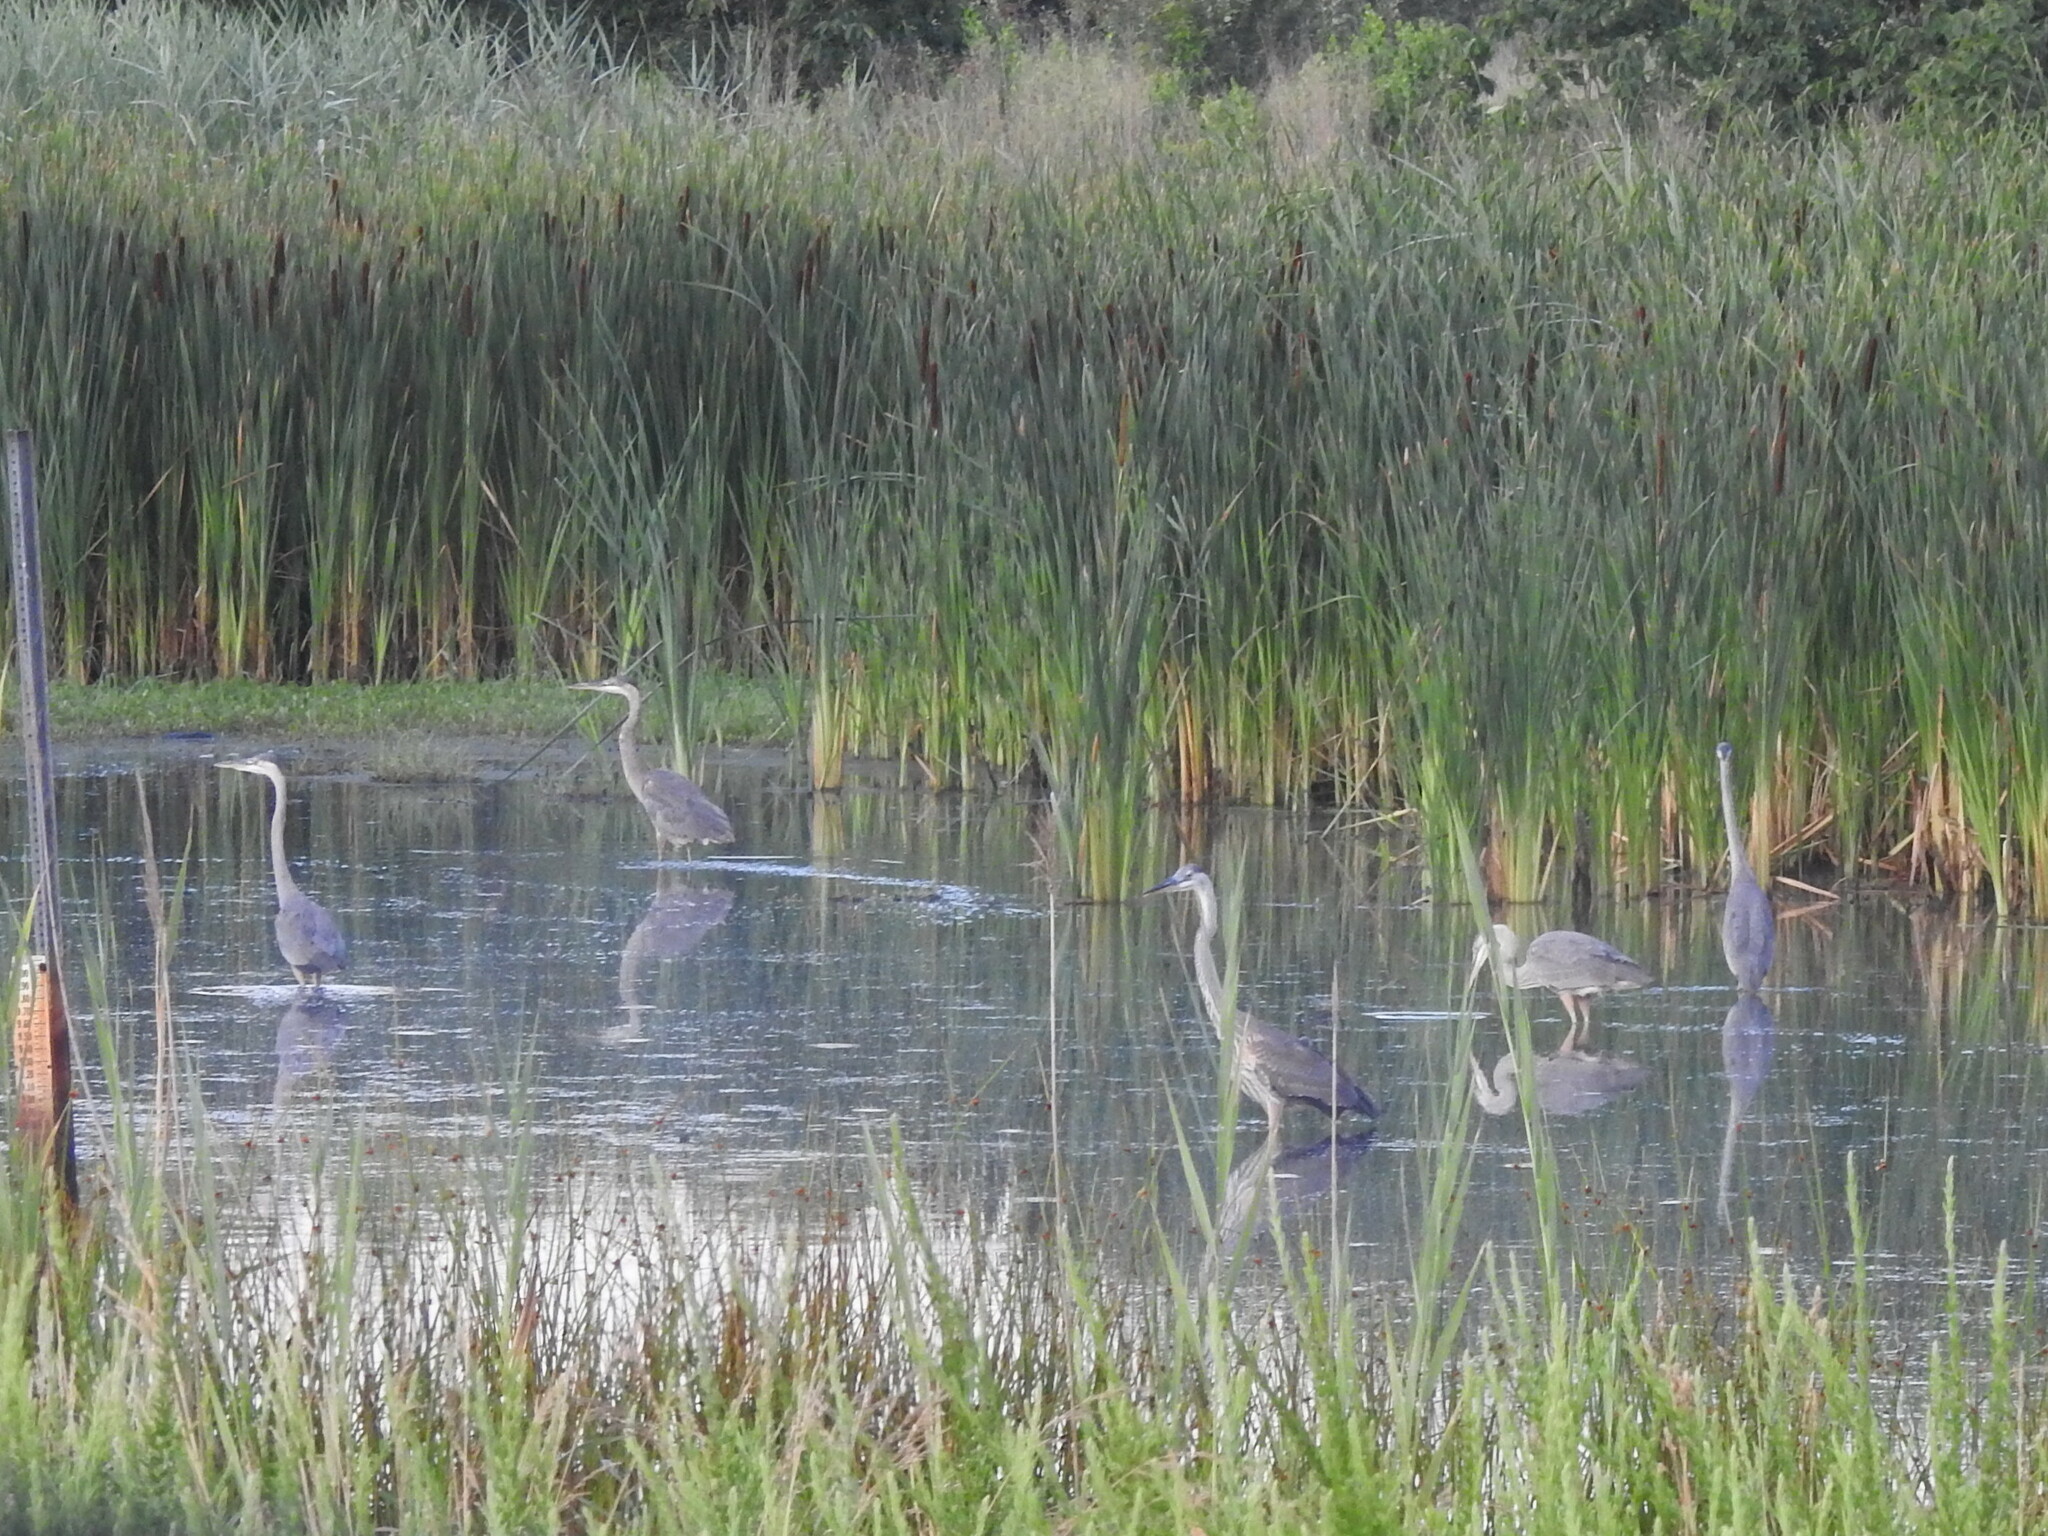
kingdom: Animalia
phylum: Chordata
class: Aves
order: Pelecaniformes
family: Ardeidae
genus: Ardea
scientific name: Ardea herodias
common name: Great blue heron
